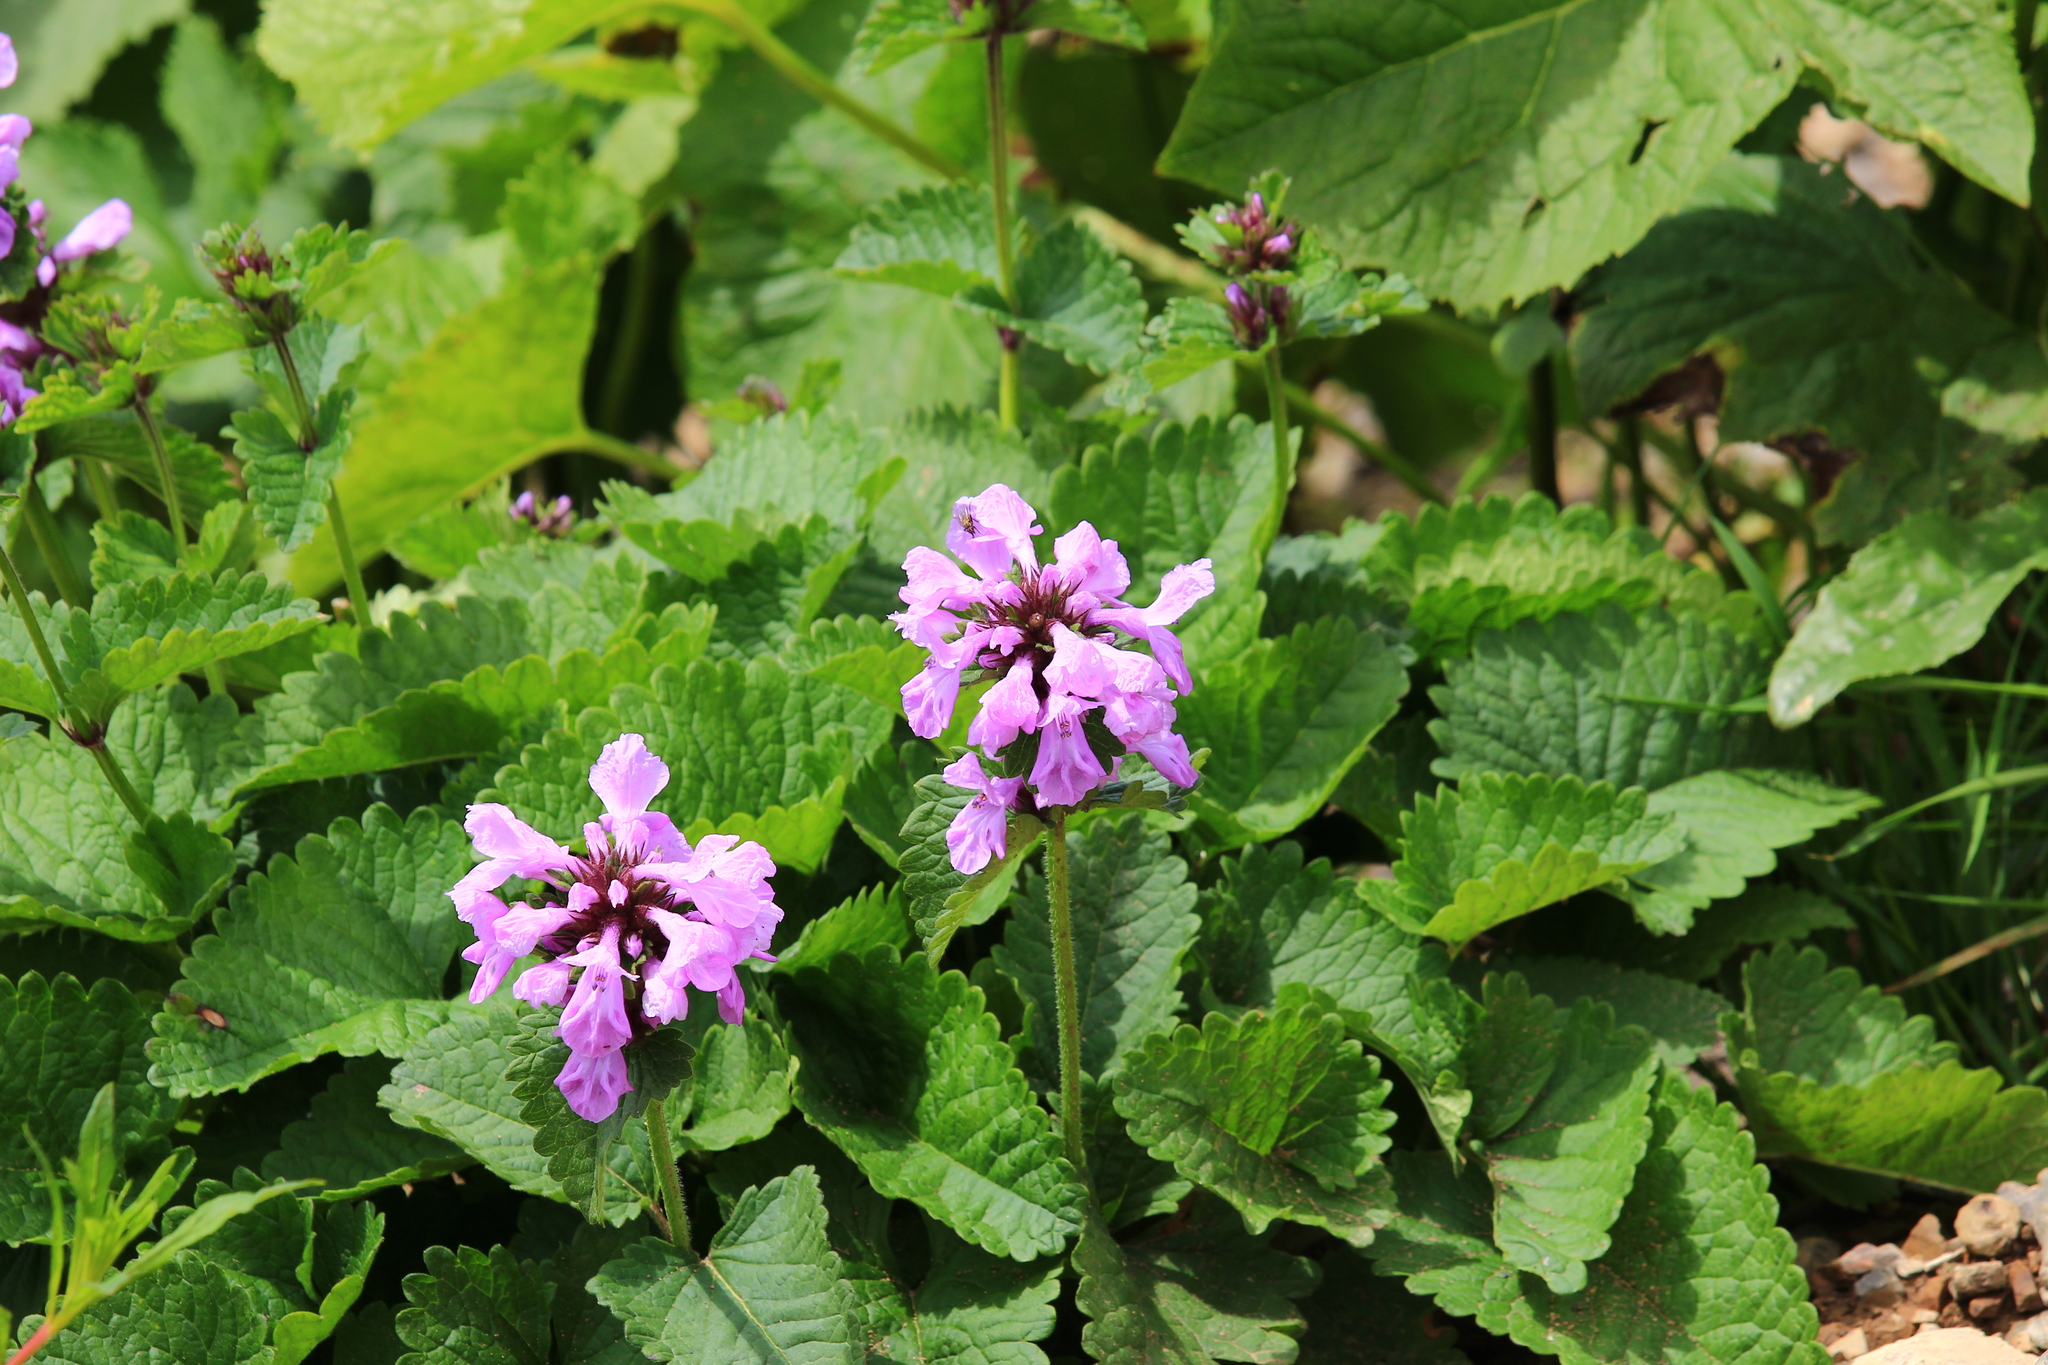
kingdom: Plantae
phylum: Tracheophyta
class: Magnoliopsida
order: Lamiales
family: Lamiaceae
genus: Betonica
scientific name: Betonica macrantha
